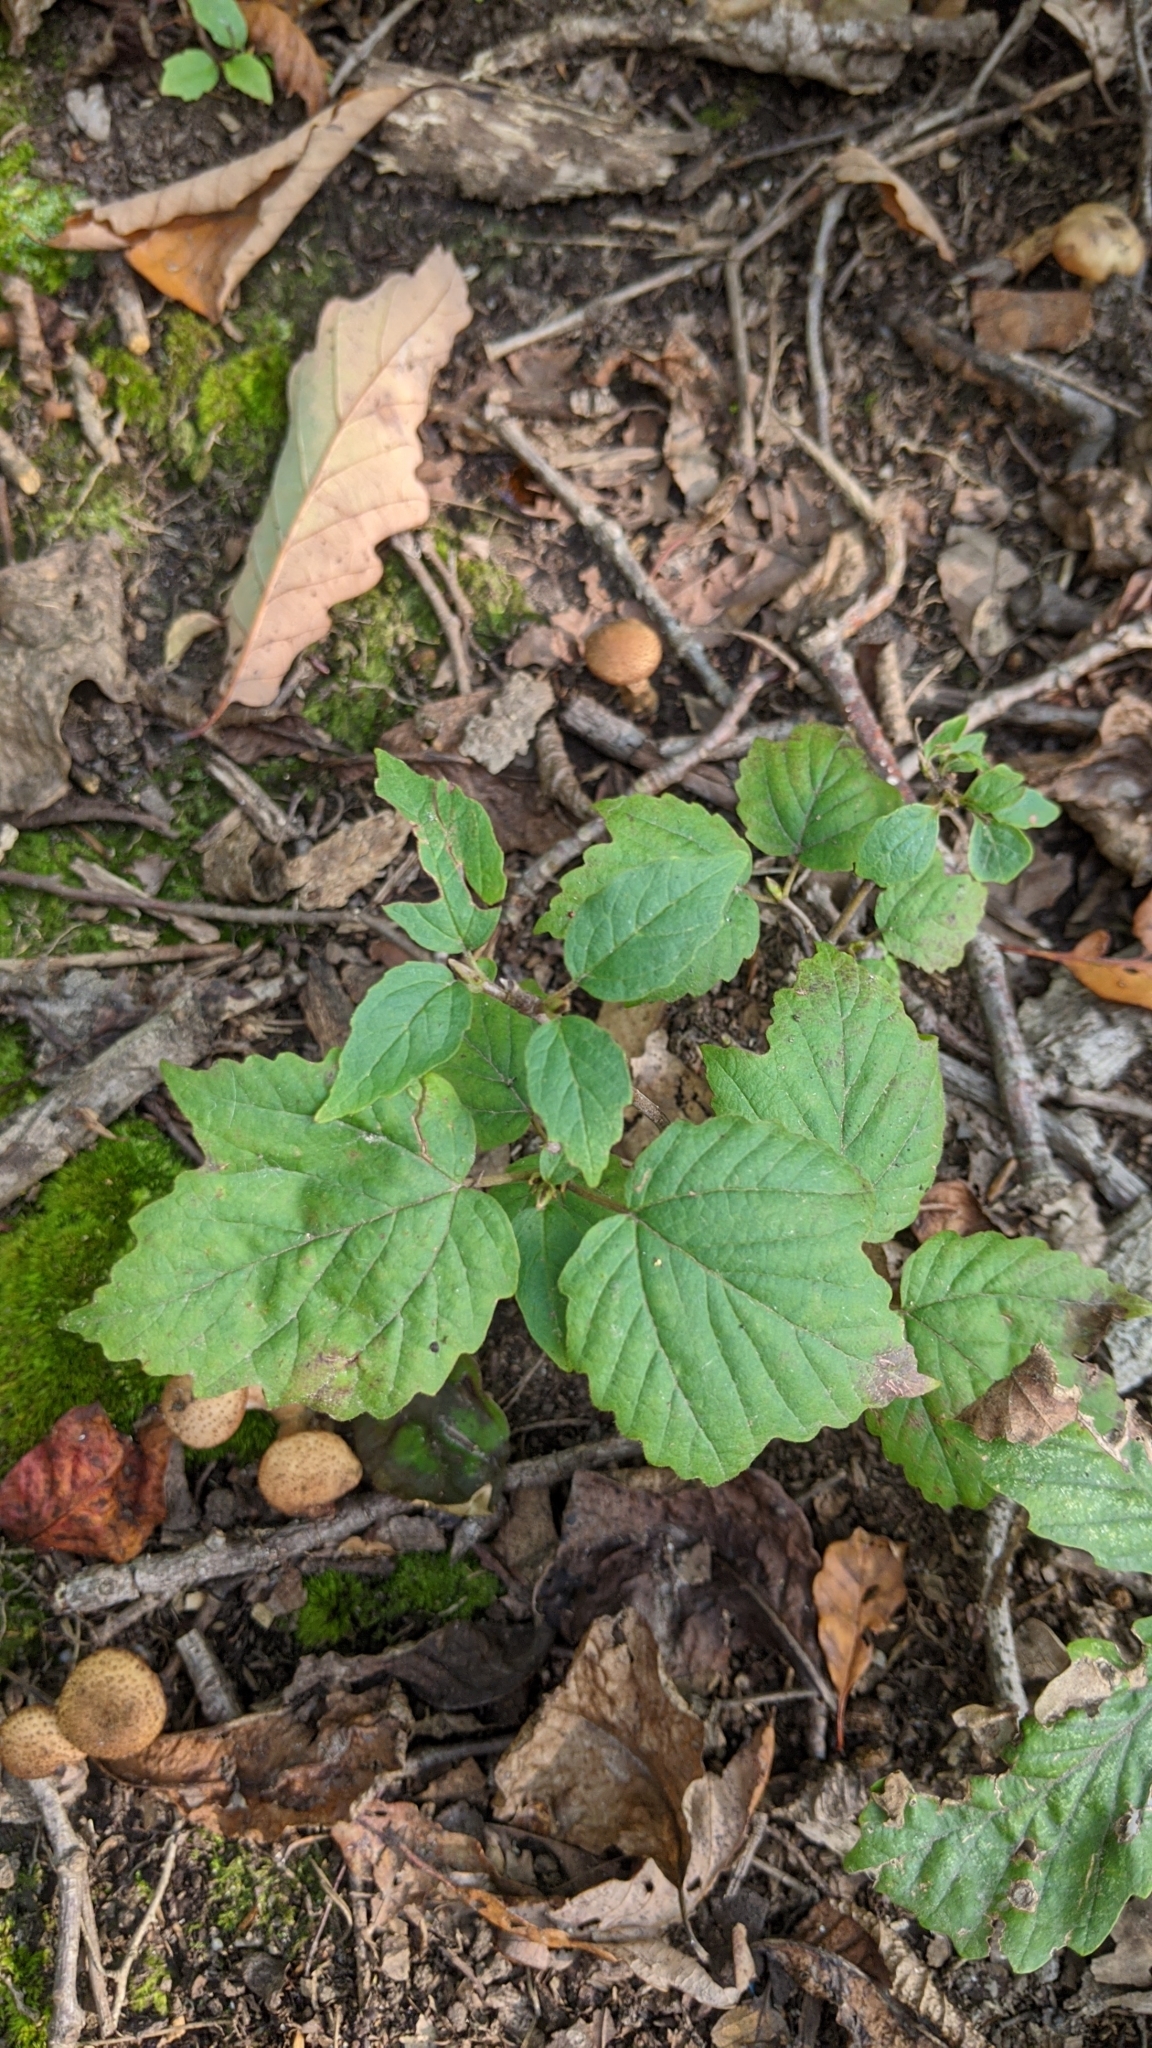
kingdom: Plantae
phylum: Tracheophyta
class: Magnoliopsida
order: Dipsacales
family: Viburnaceae
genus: Viburnum
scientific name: Viburnum acerifolium
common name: Dockmackie
